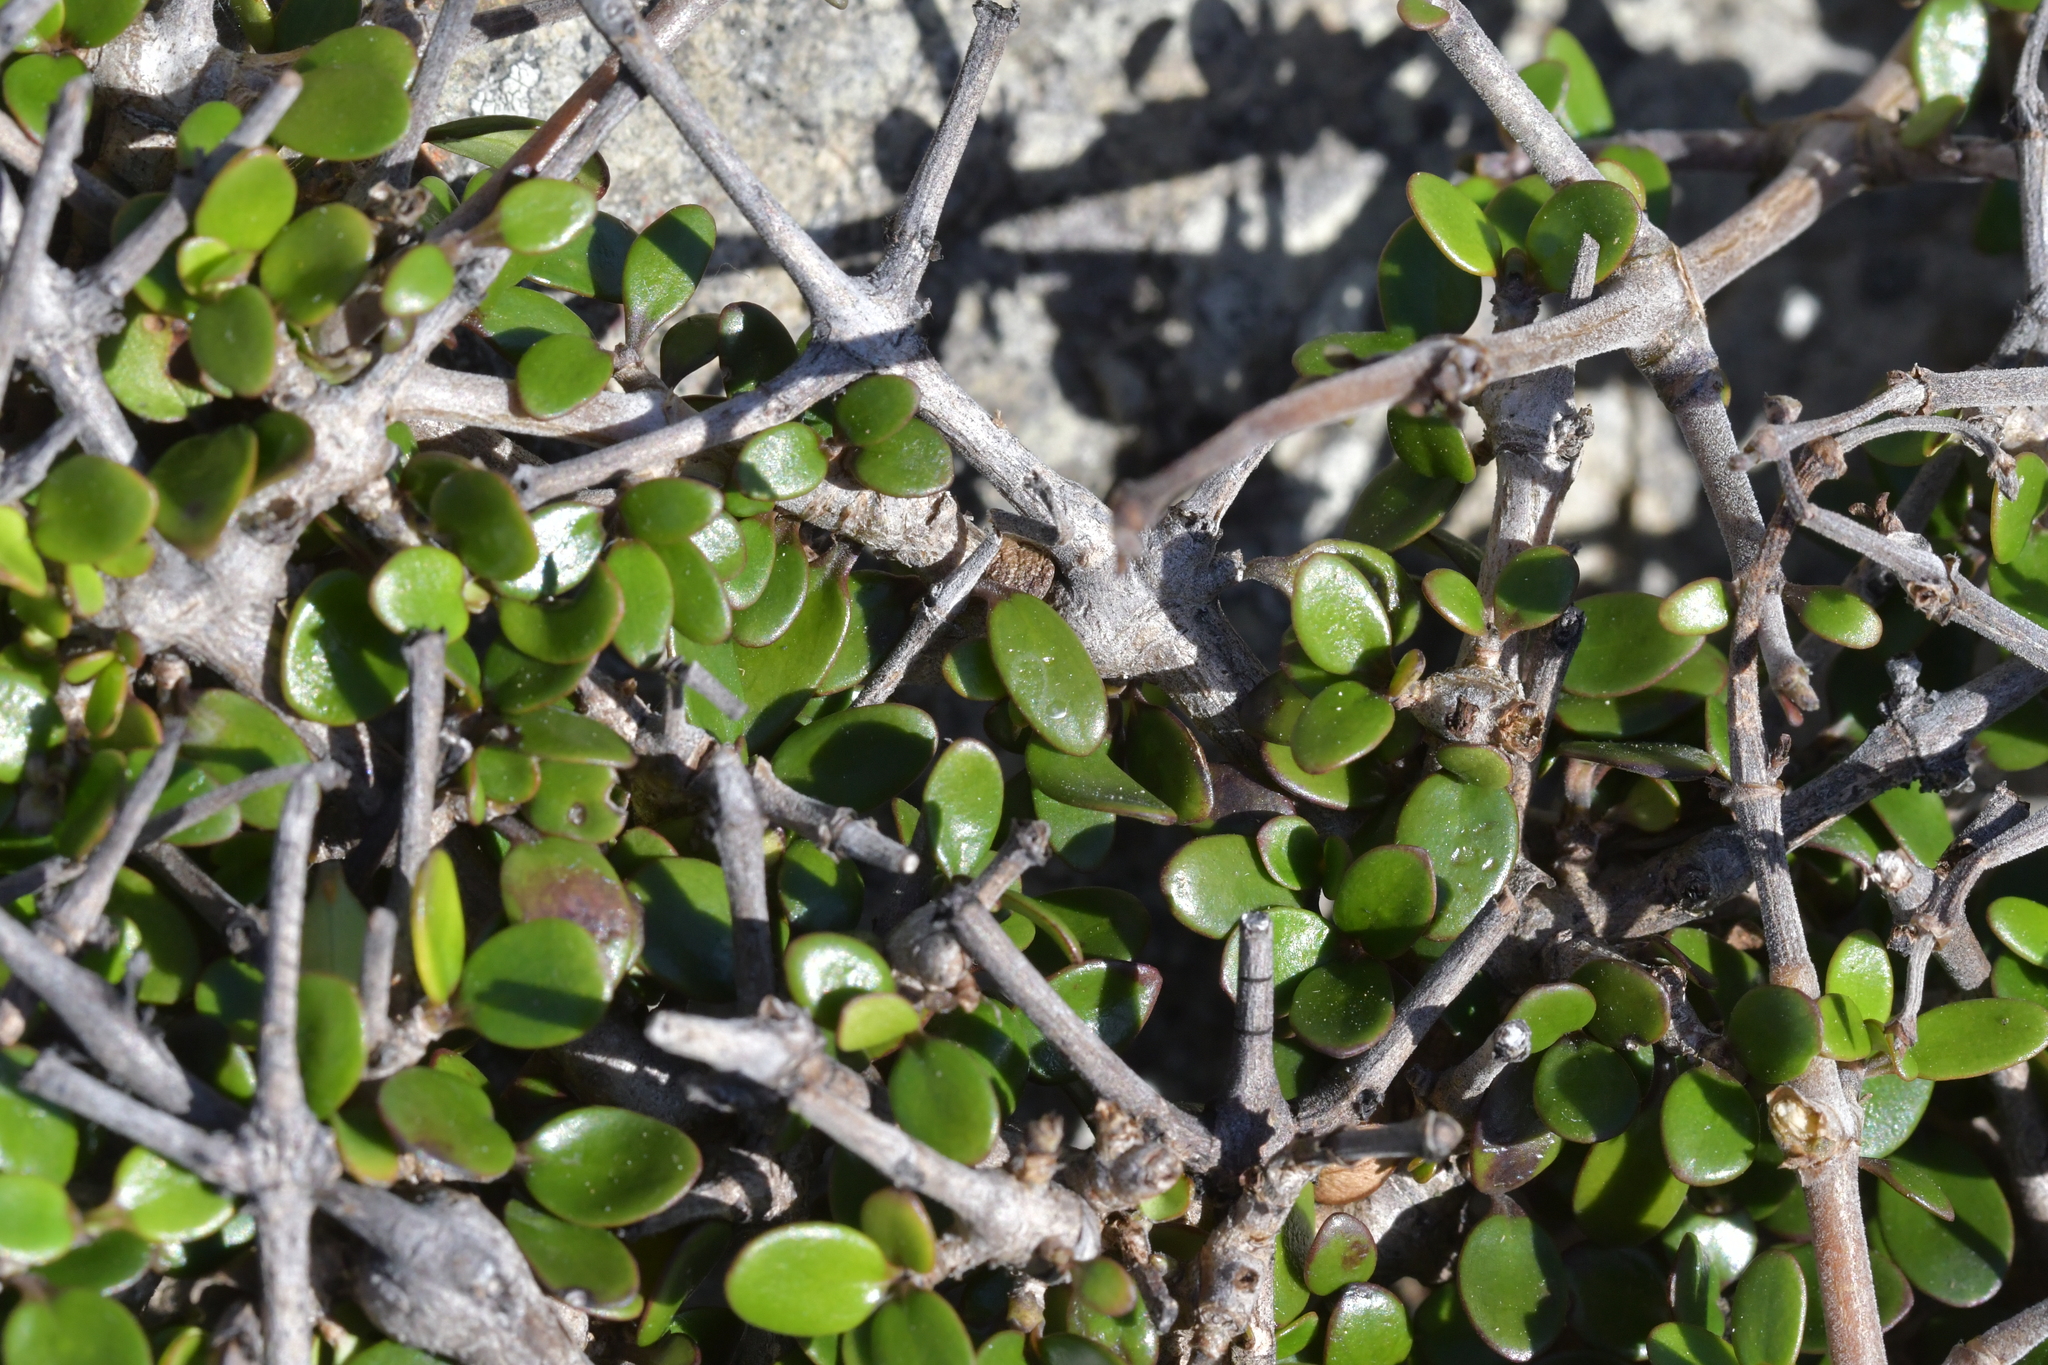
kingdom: Plantae
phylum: Tracheophyta
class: Magnoliopsida
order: Gentianales
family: Rubiaceae
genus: Coprosma
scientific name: Coprosma crassifolia
